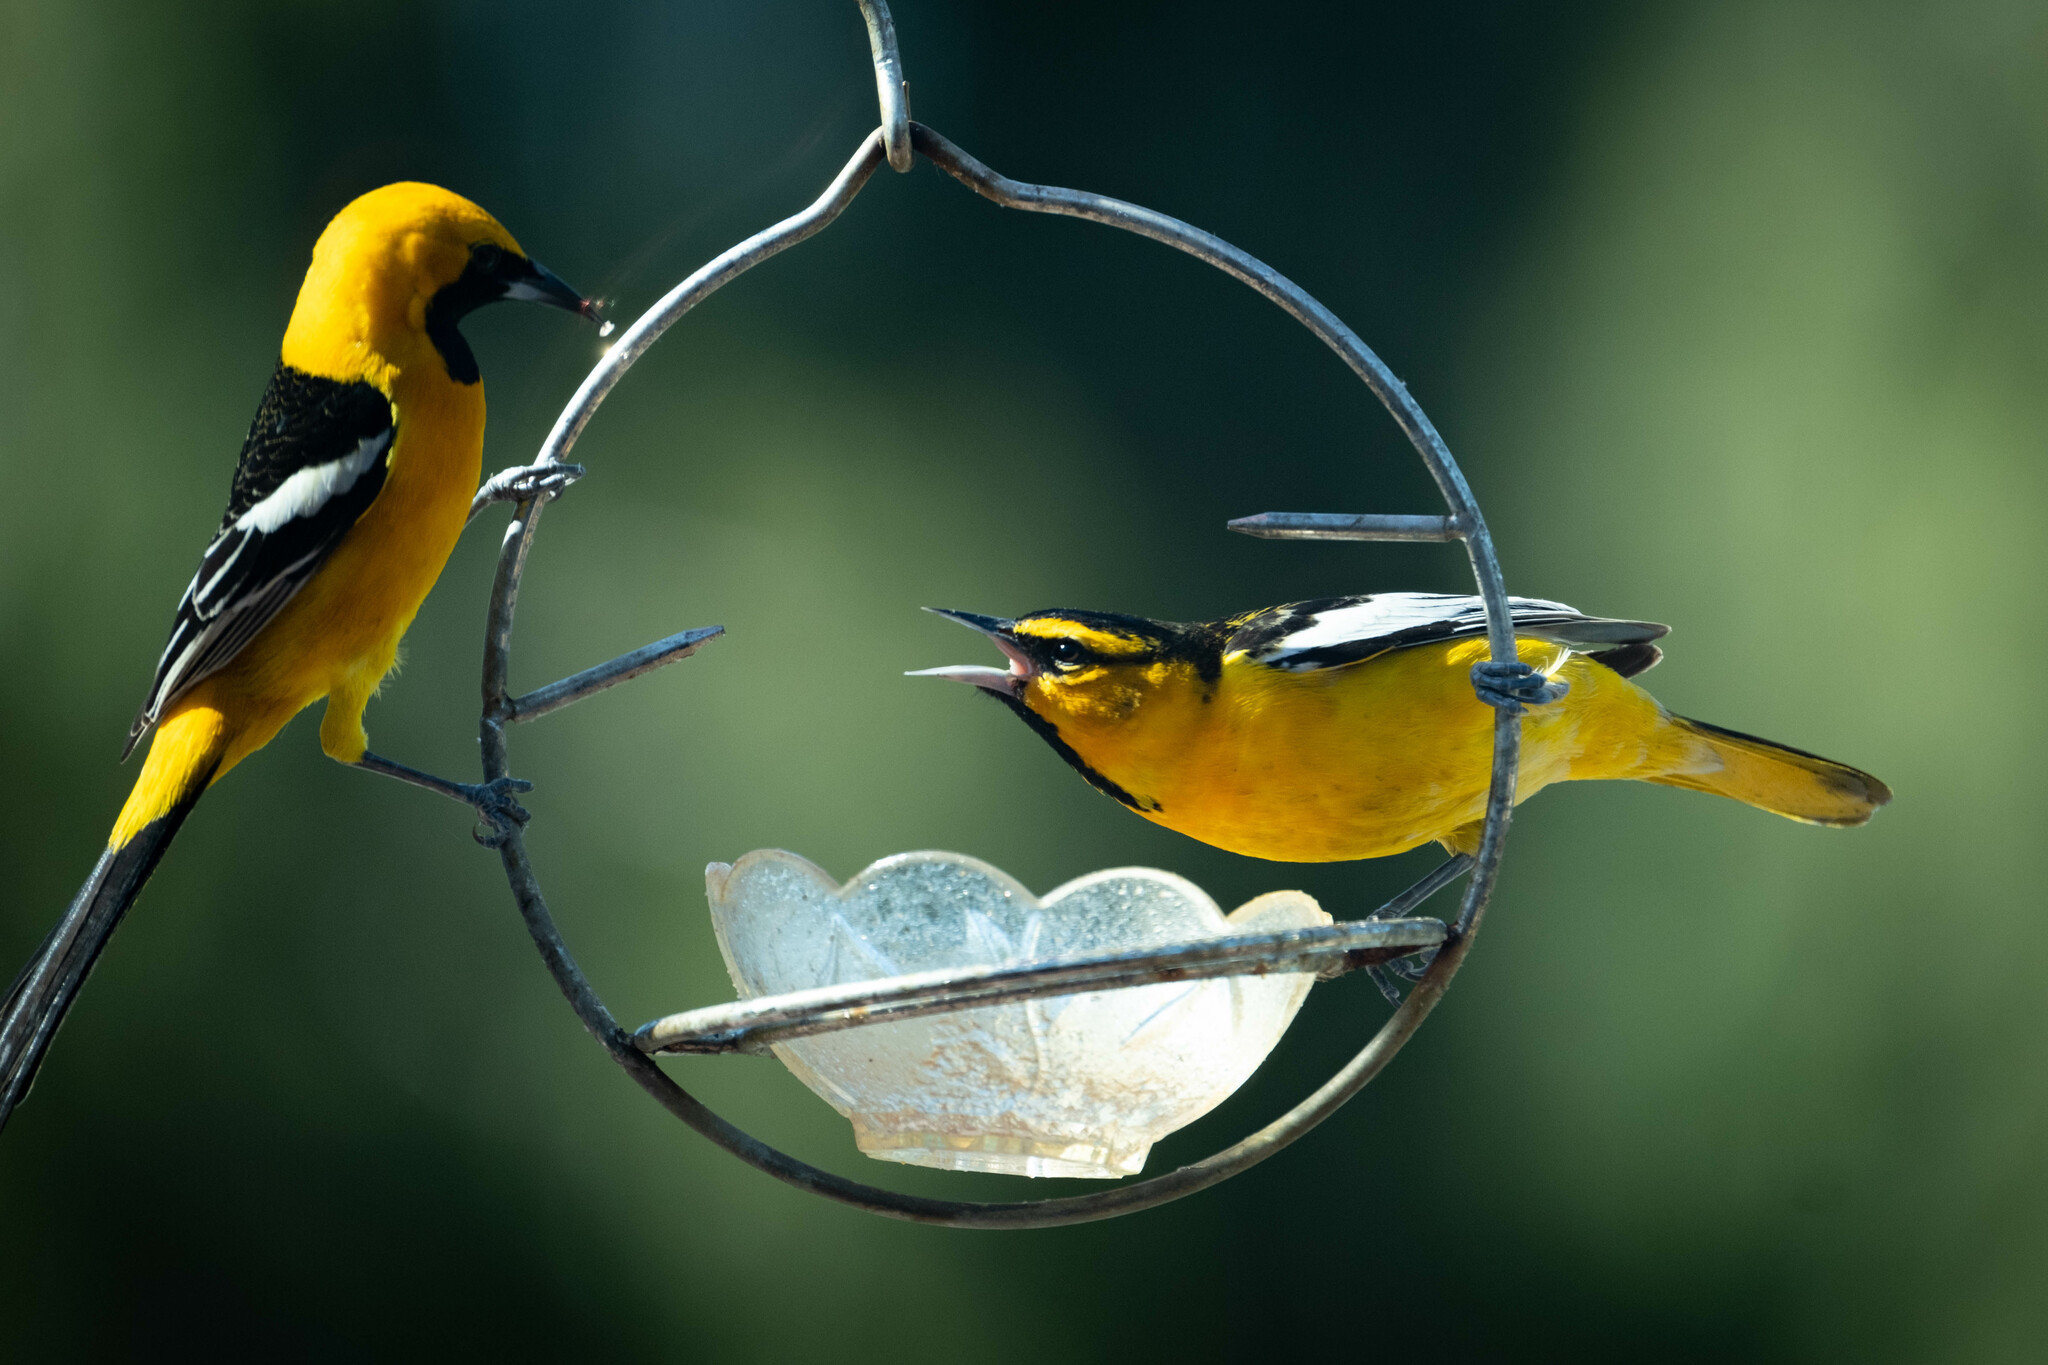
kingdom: Animalia
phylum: Chordata
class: Aves
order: Passeriformes
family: Icteridae
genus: Icterus
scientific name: Icterus bullockii
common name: Bullock's oriole
